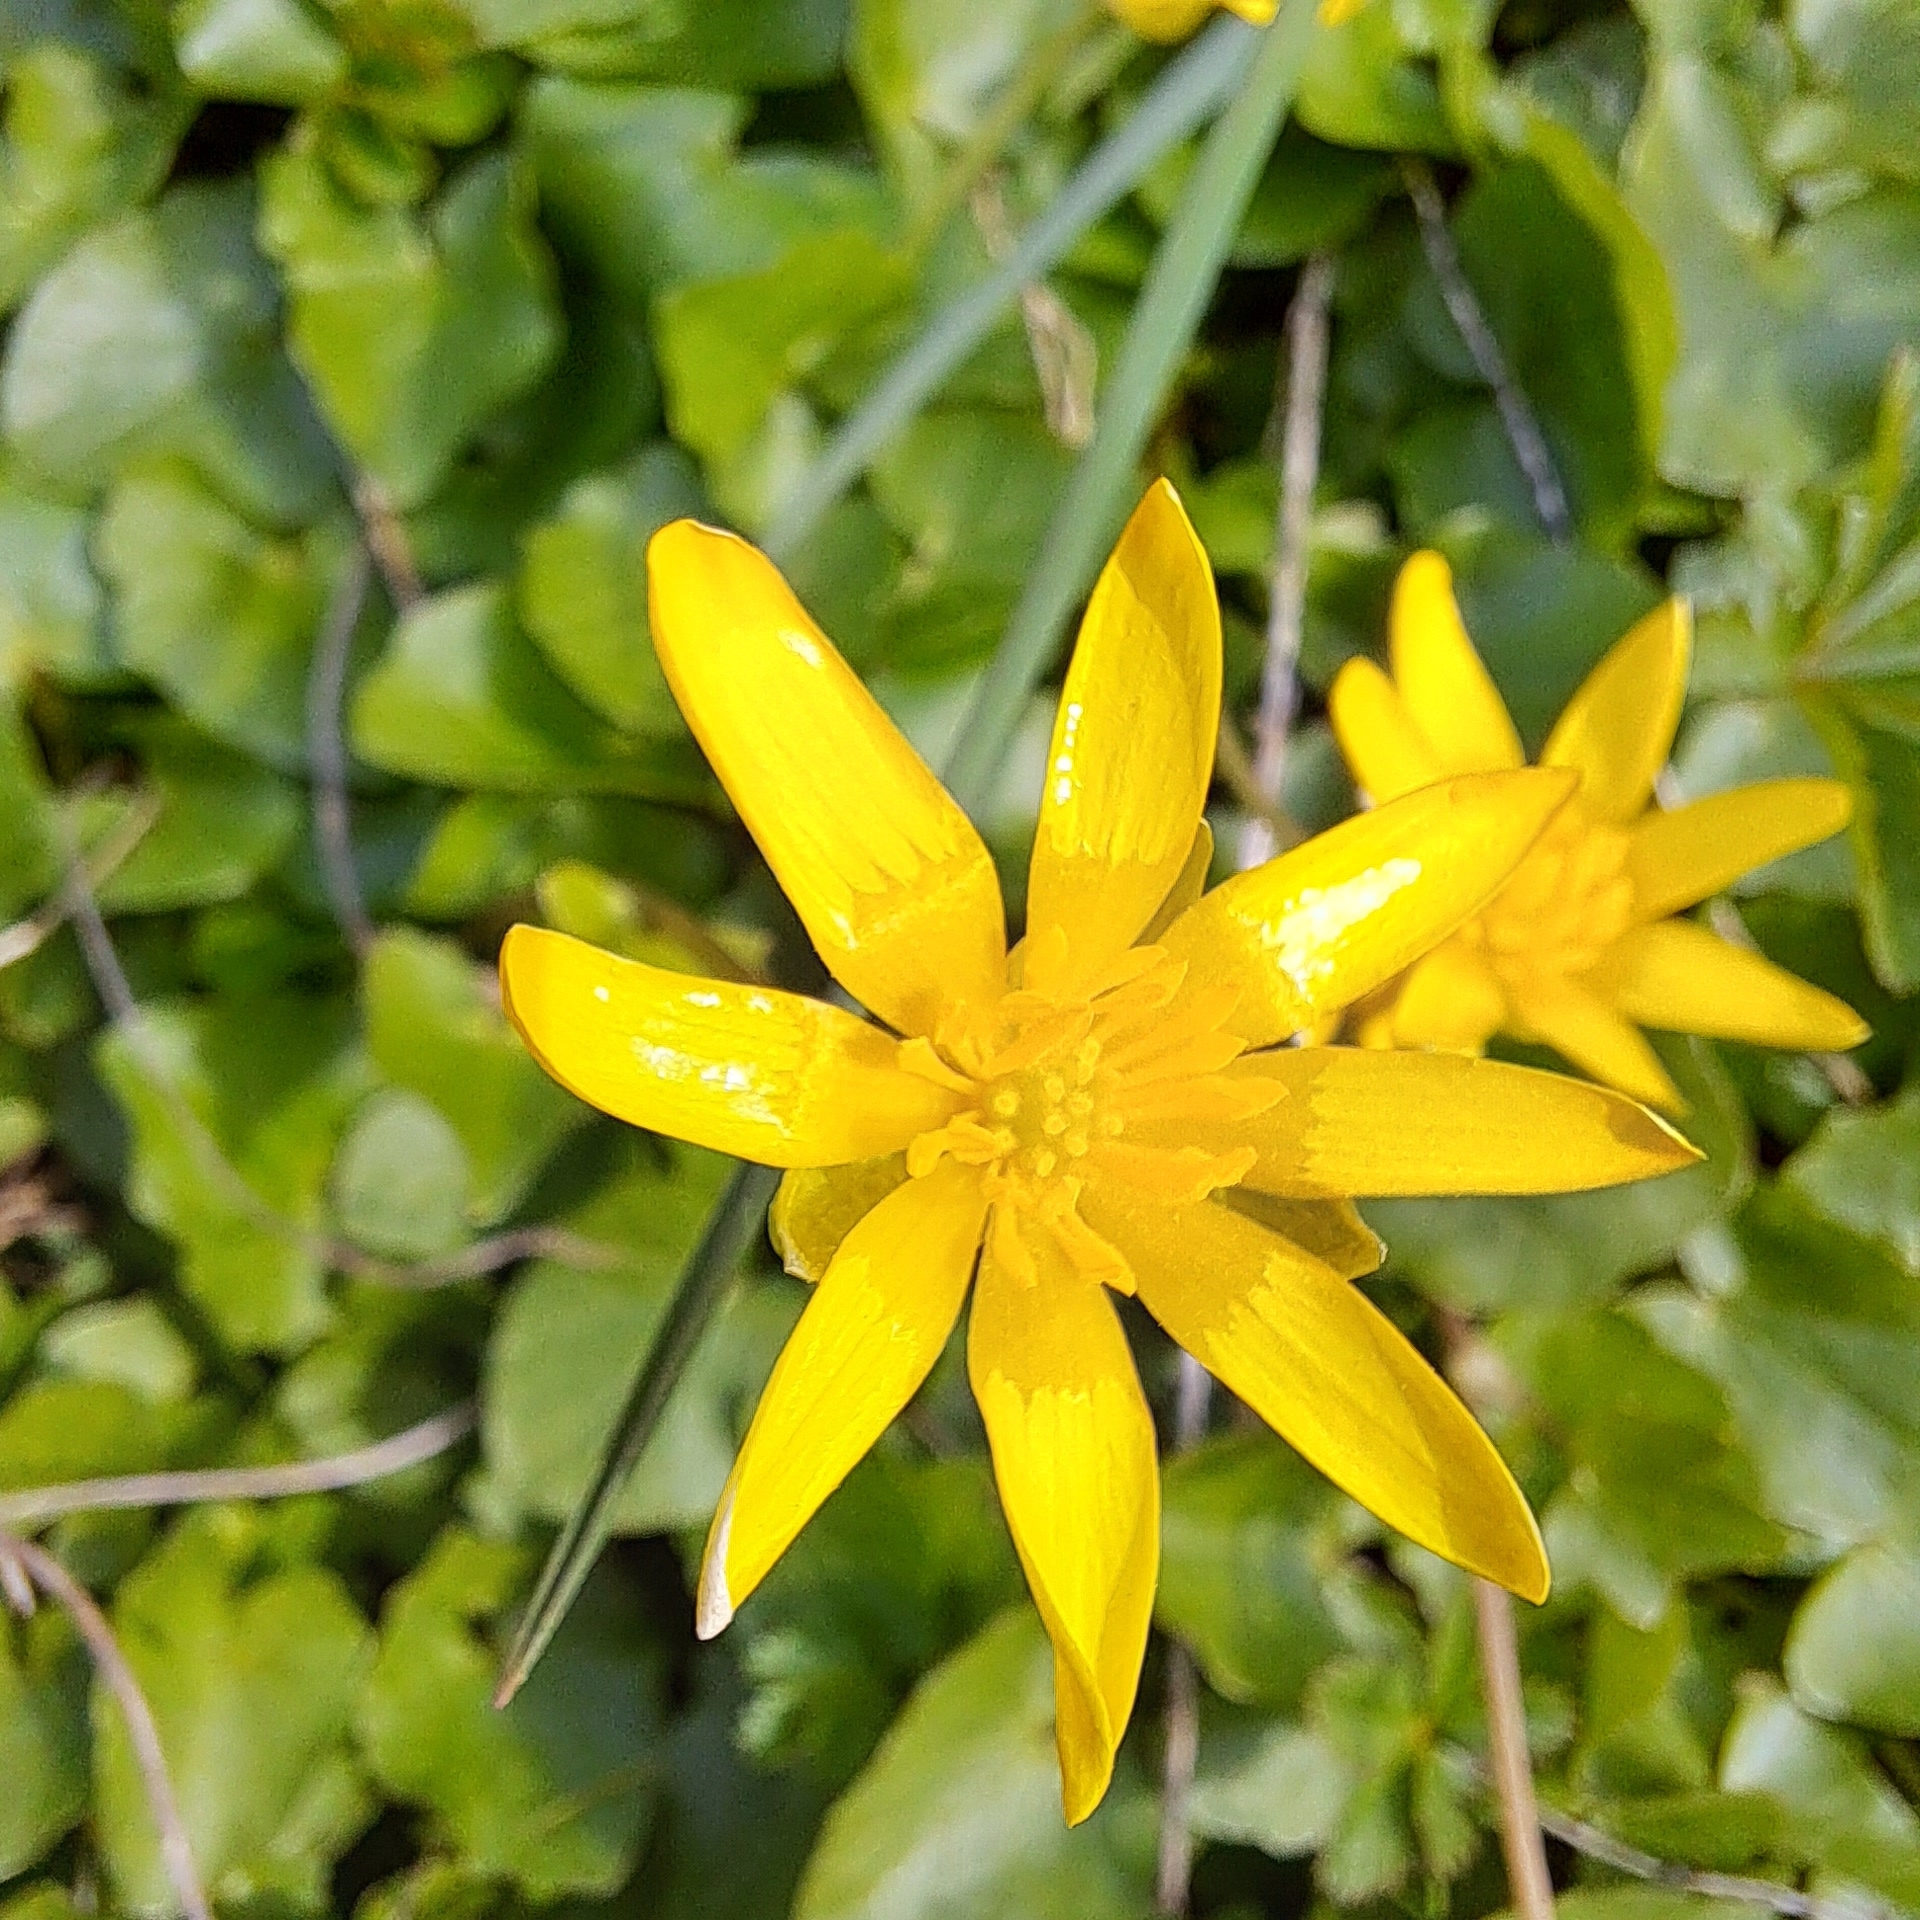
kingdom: Plantae
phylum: Tracheophyta
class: Magnoliopsida
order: Ranunculales
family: Ranunculaceae
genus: Ficaria
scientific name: Ficaria verna
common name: Lesser celandine
